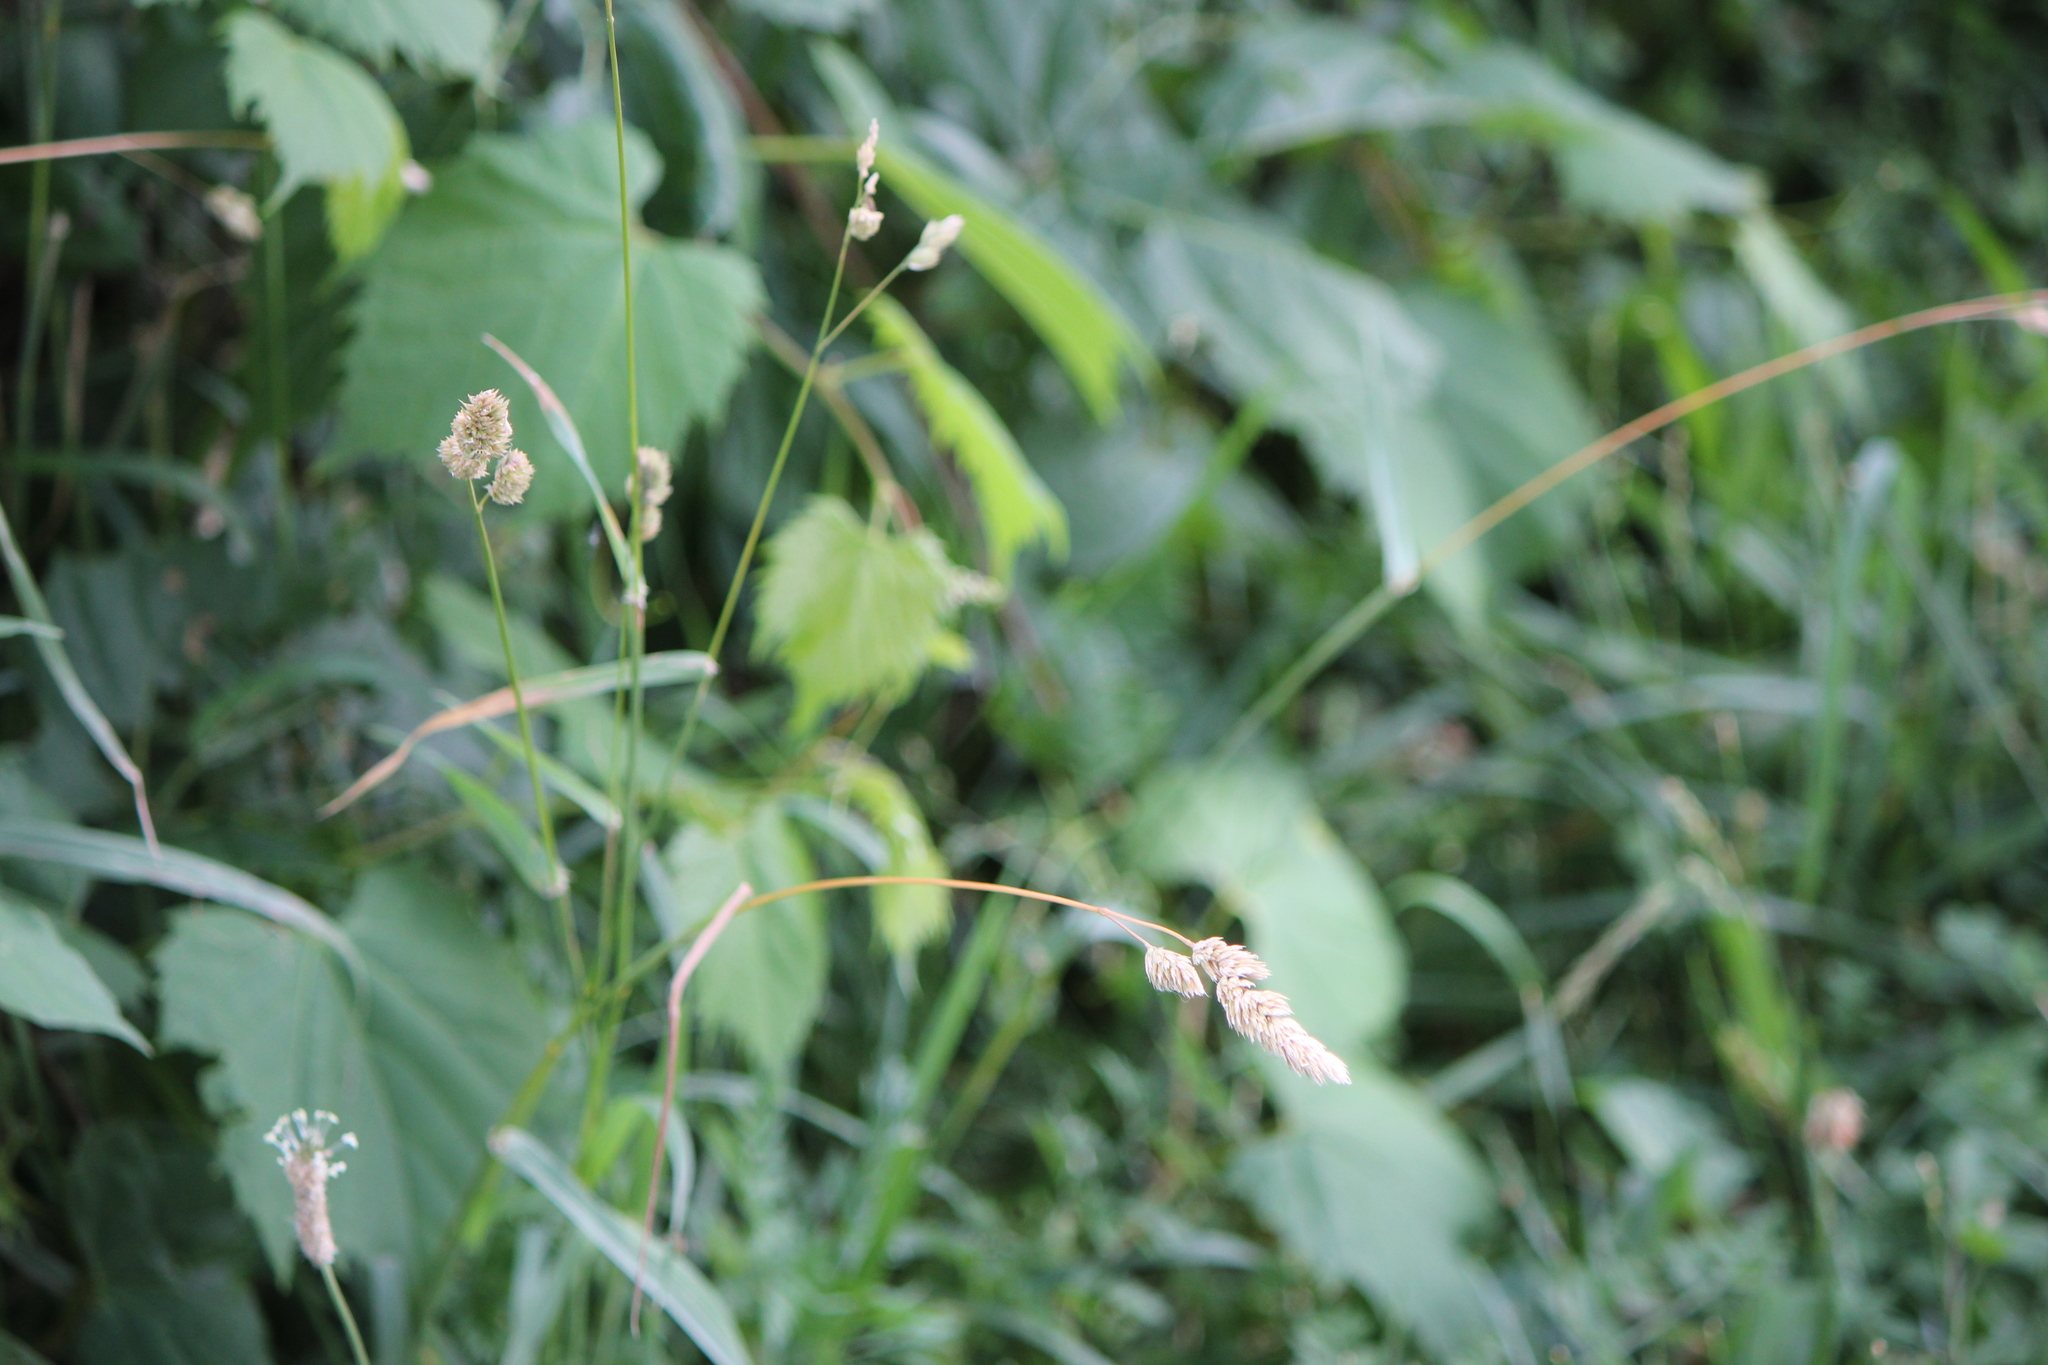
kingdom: Plantae
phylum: Tracheophyta
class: Liliopsida
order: Poales
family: Poaceae
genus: Dactylis
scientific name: Dactylis glomerata
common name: Orchardgrass
